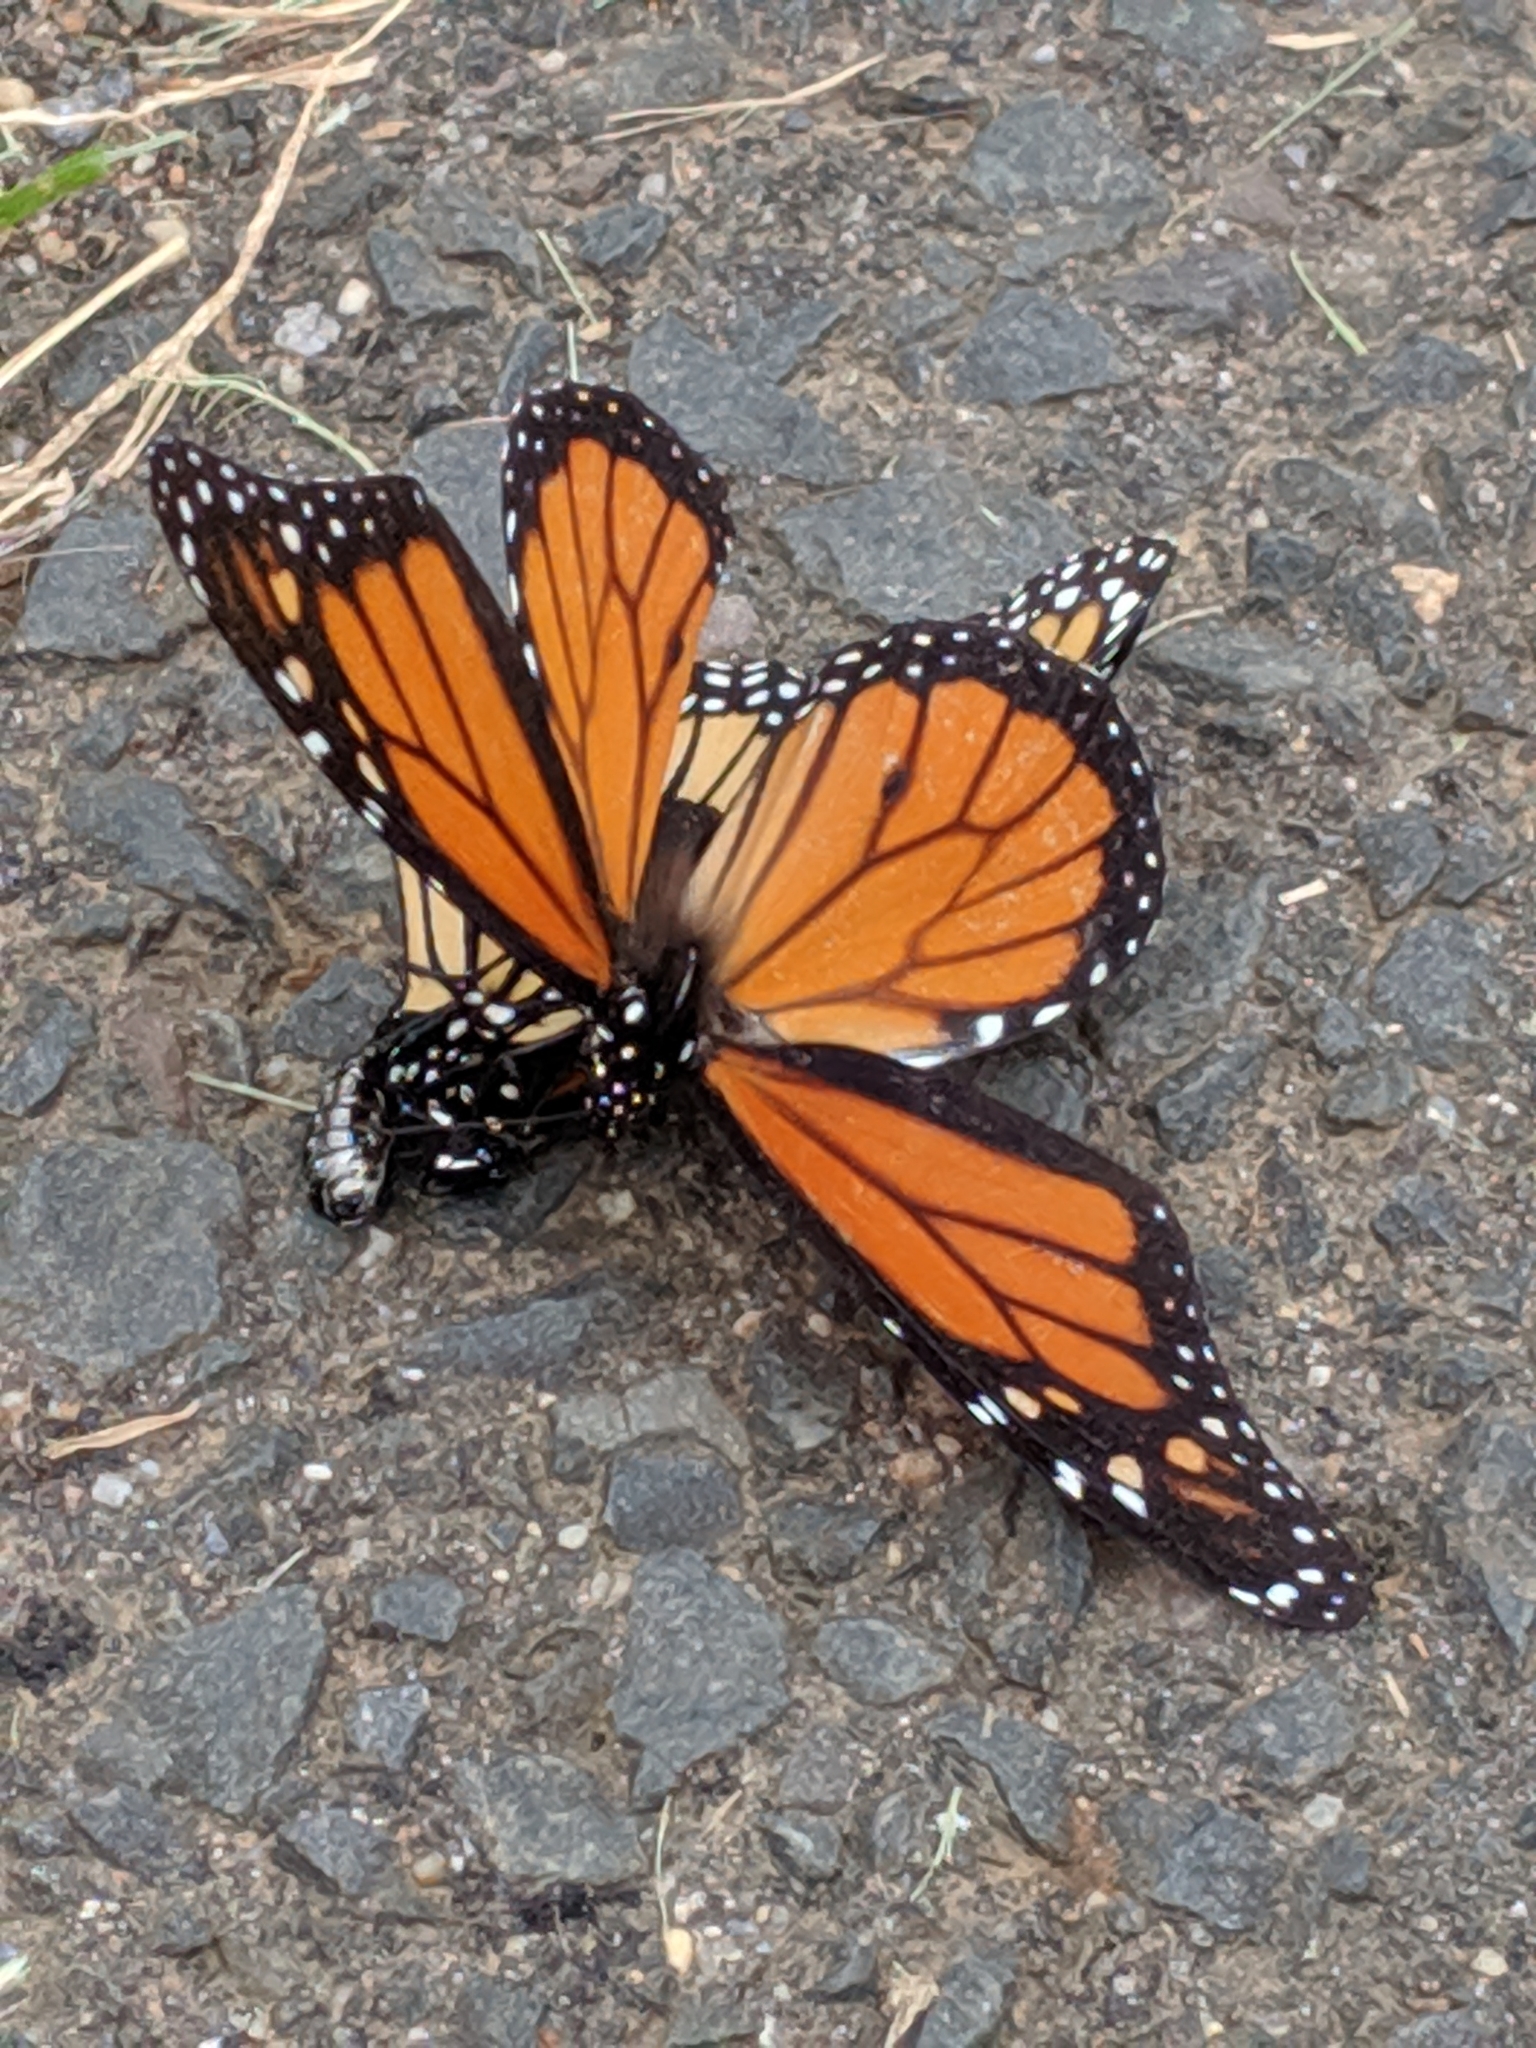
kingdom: Animalia
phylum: Arthropoda
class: Insecta
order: Lepidoptera
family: Nymphalidae
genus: Danaus
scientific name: Danaus plexippus
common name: Monarch
